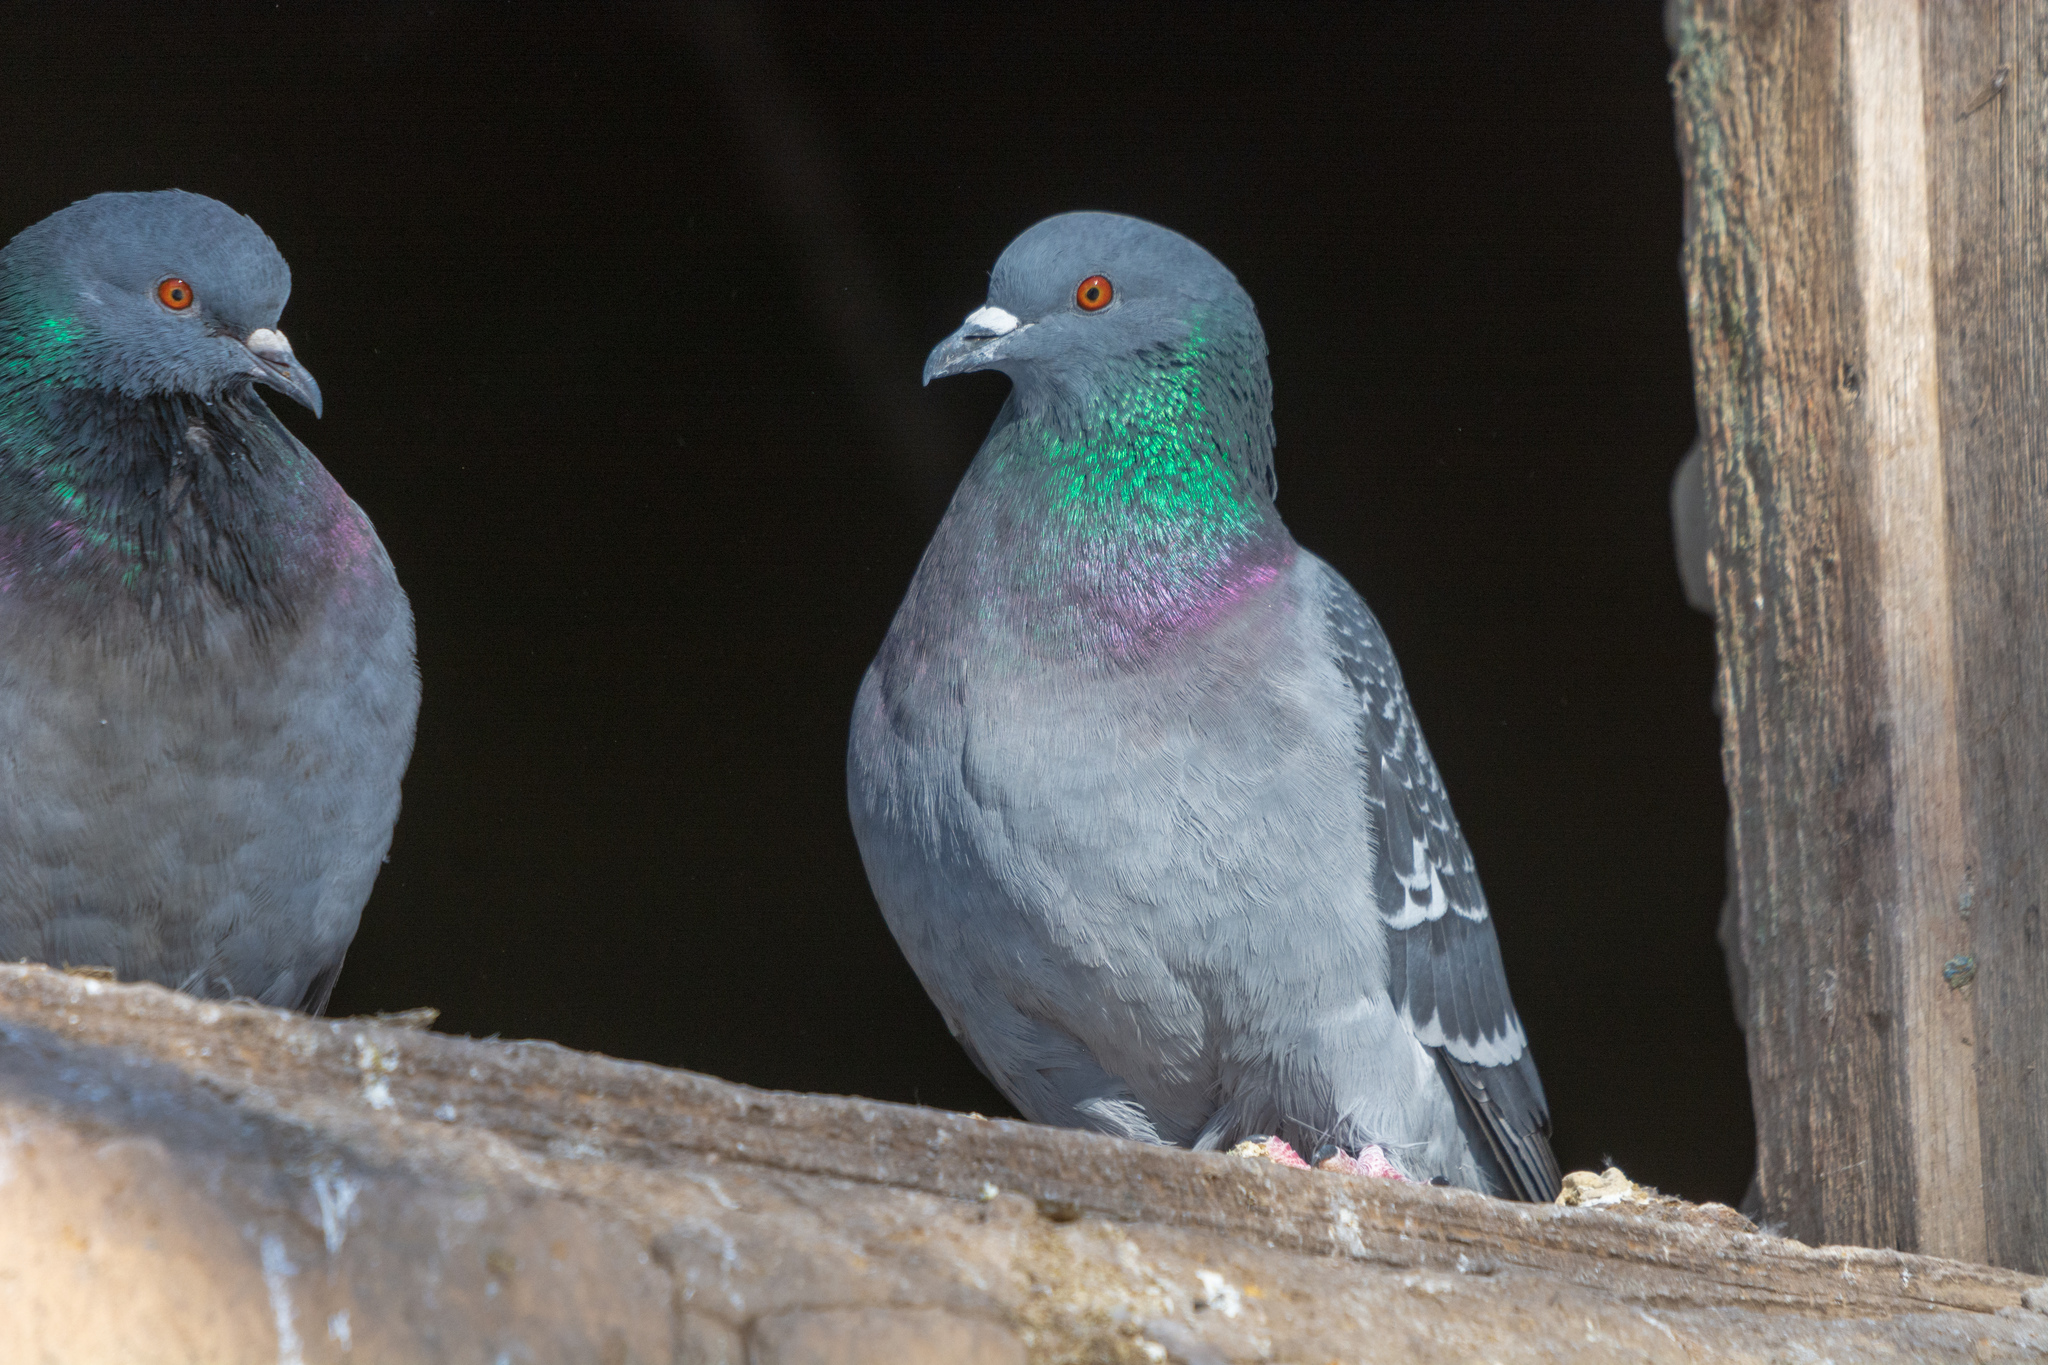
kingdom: Animalia
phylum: Chordata
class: Aves
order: Columbiformes
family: Columbidae
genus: Columba
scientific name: Columba livia
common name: Rock pigeon
